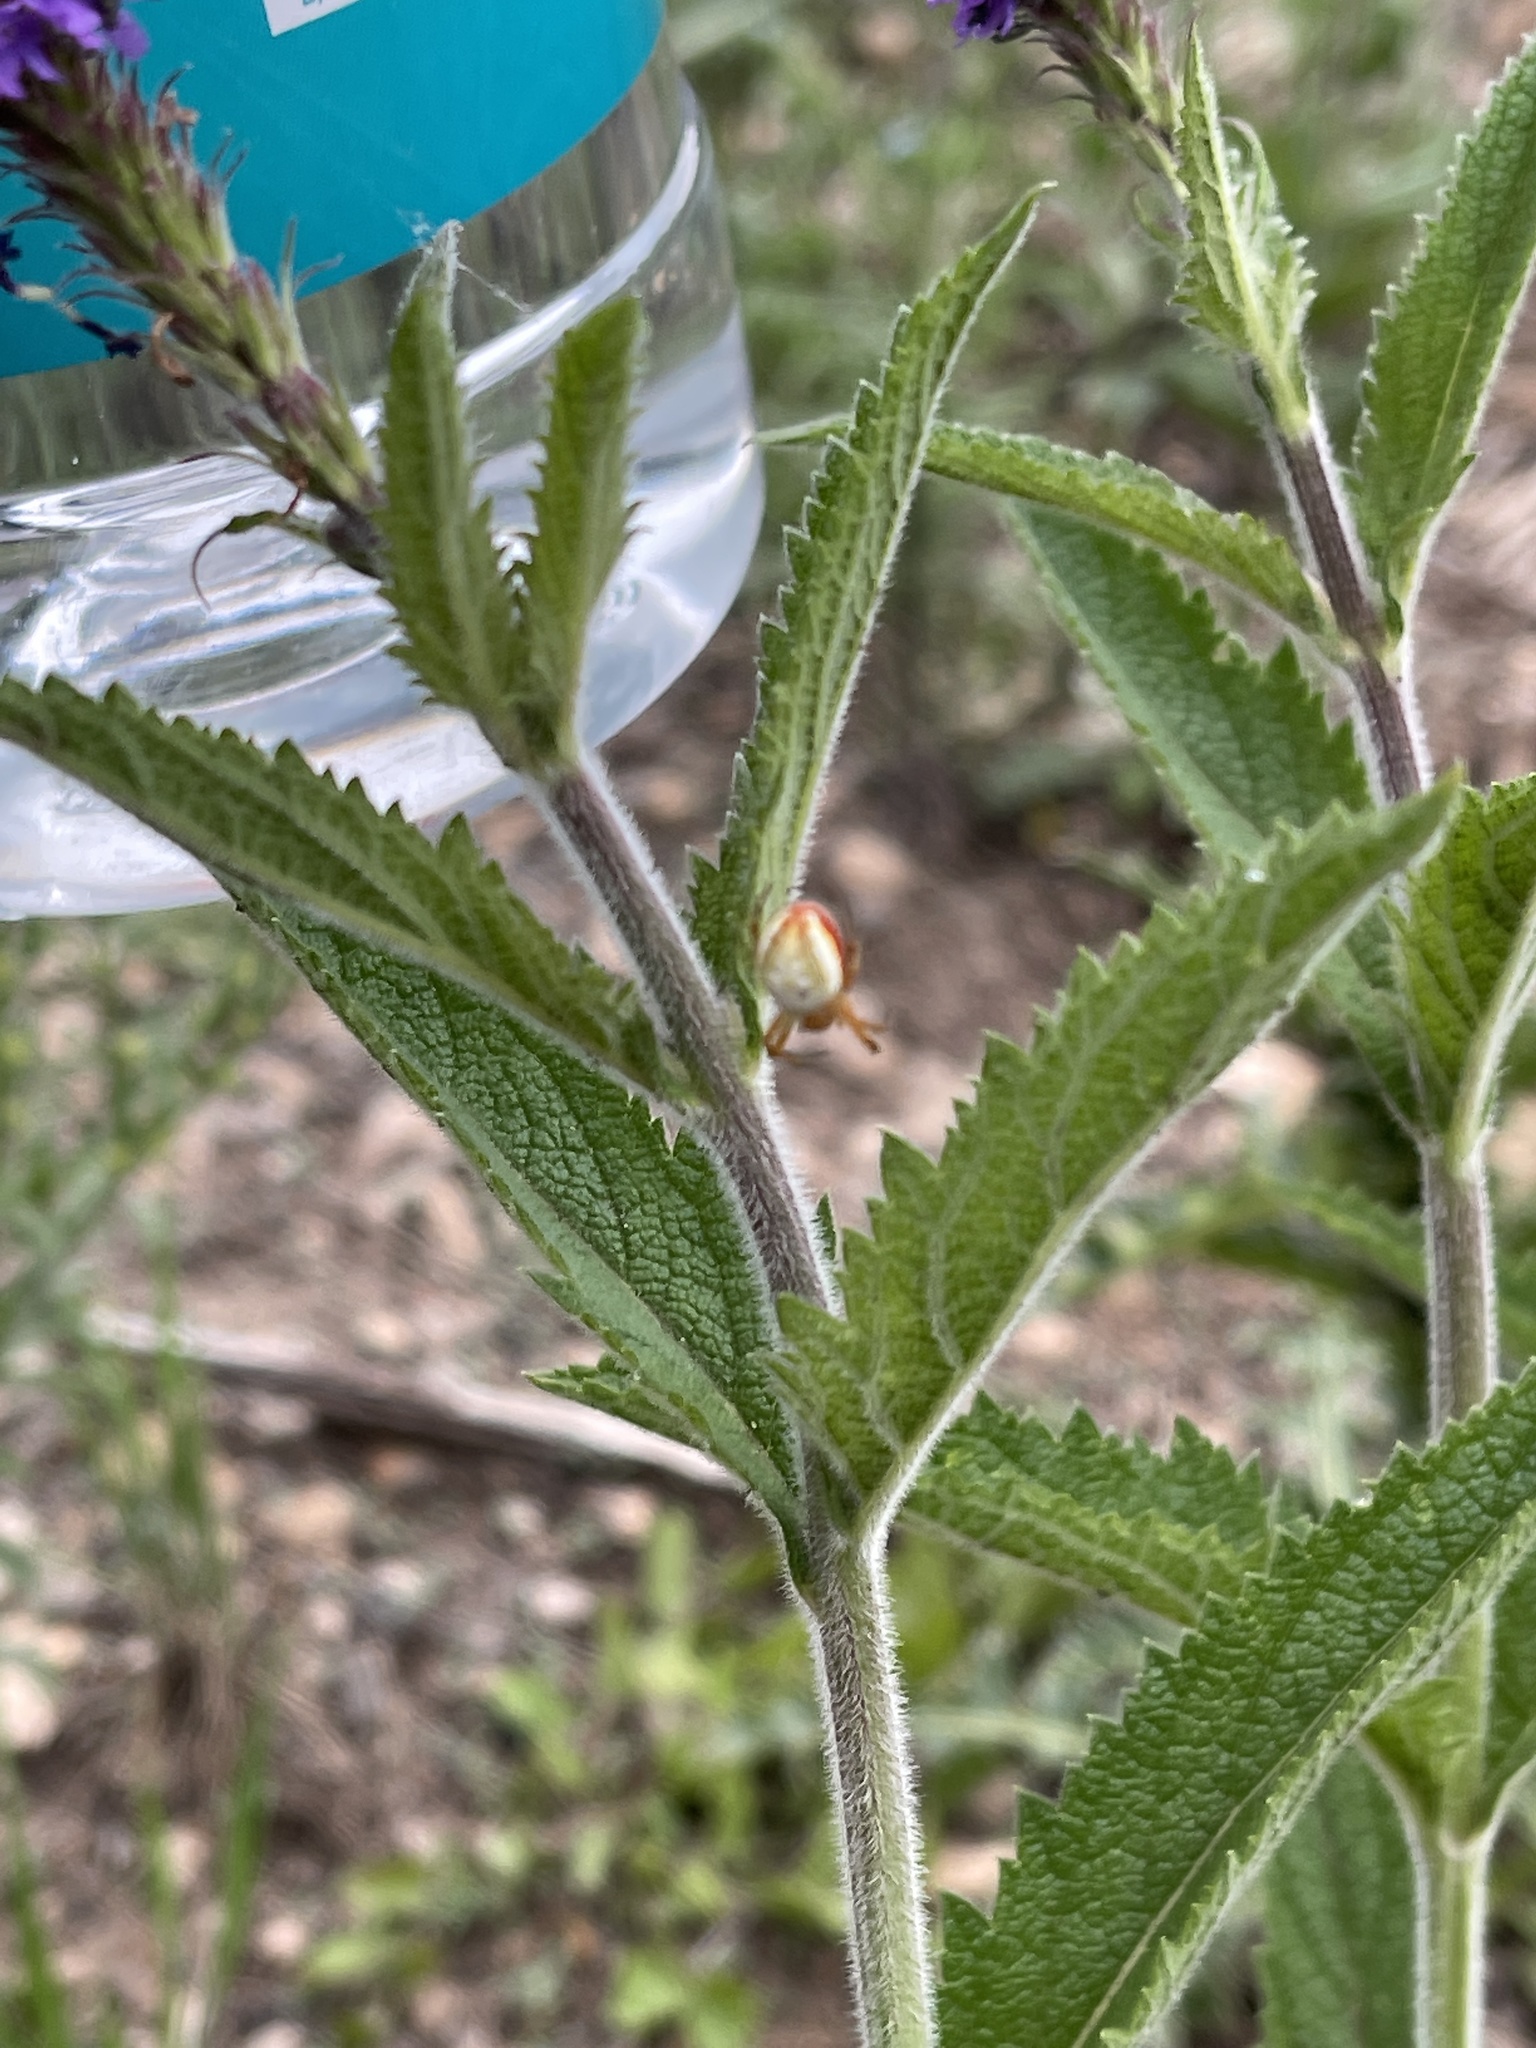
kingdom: Animalia
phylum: Arthropoda
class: Arachnida
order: Araneae
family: Araneidae
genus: Araniella
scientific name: Araniella displicata
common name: Sixspotted orb weaver
